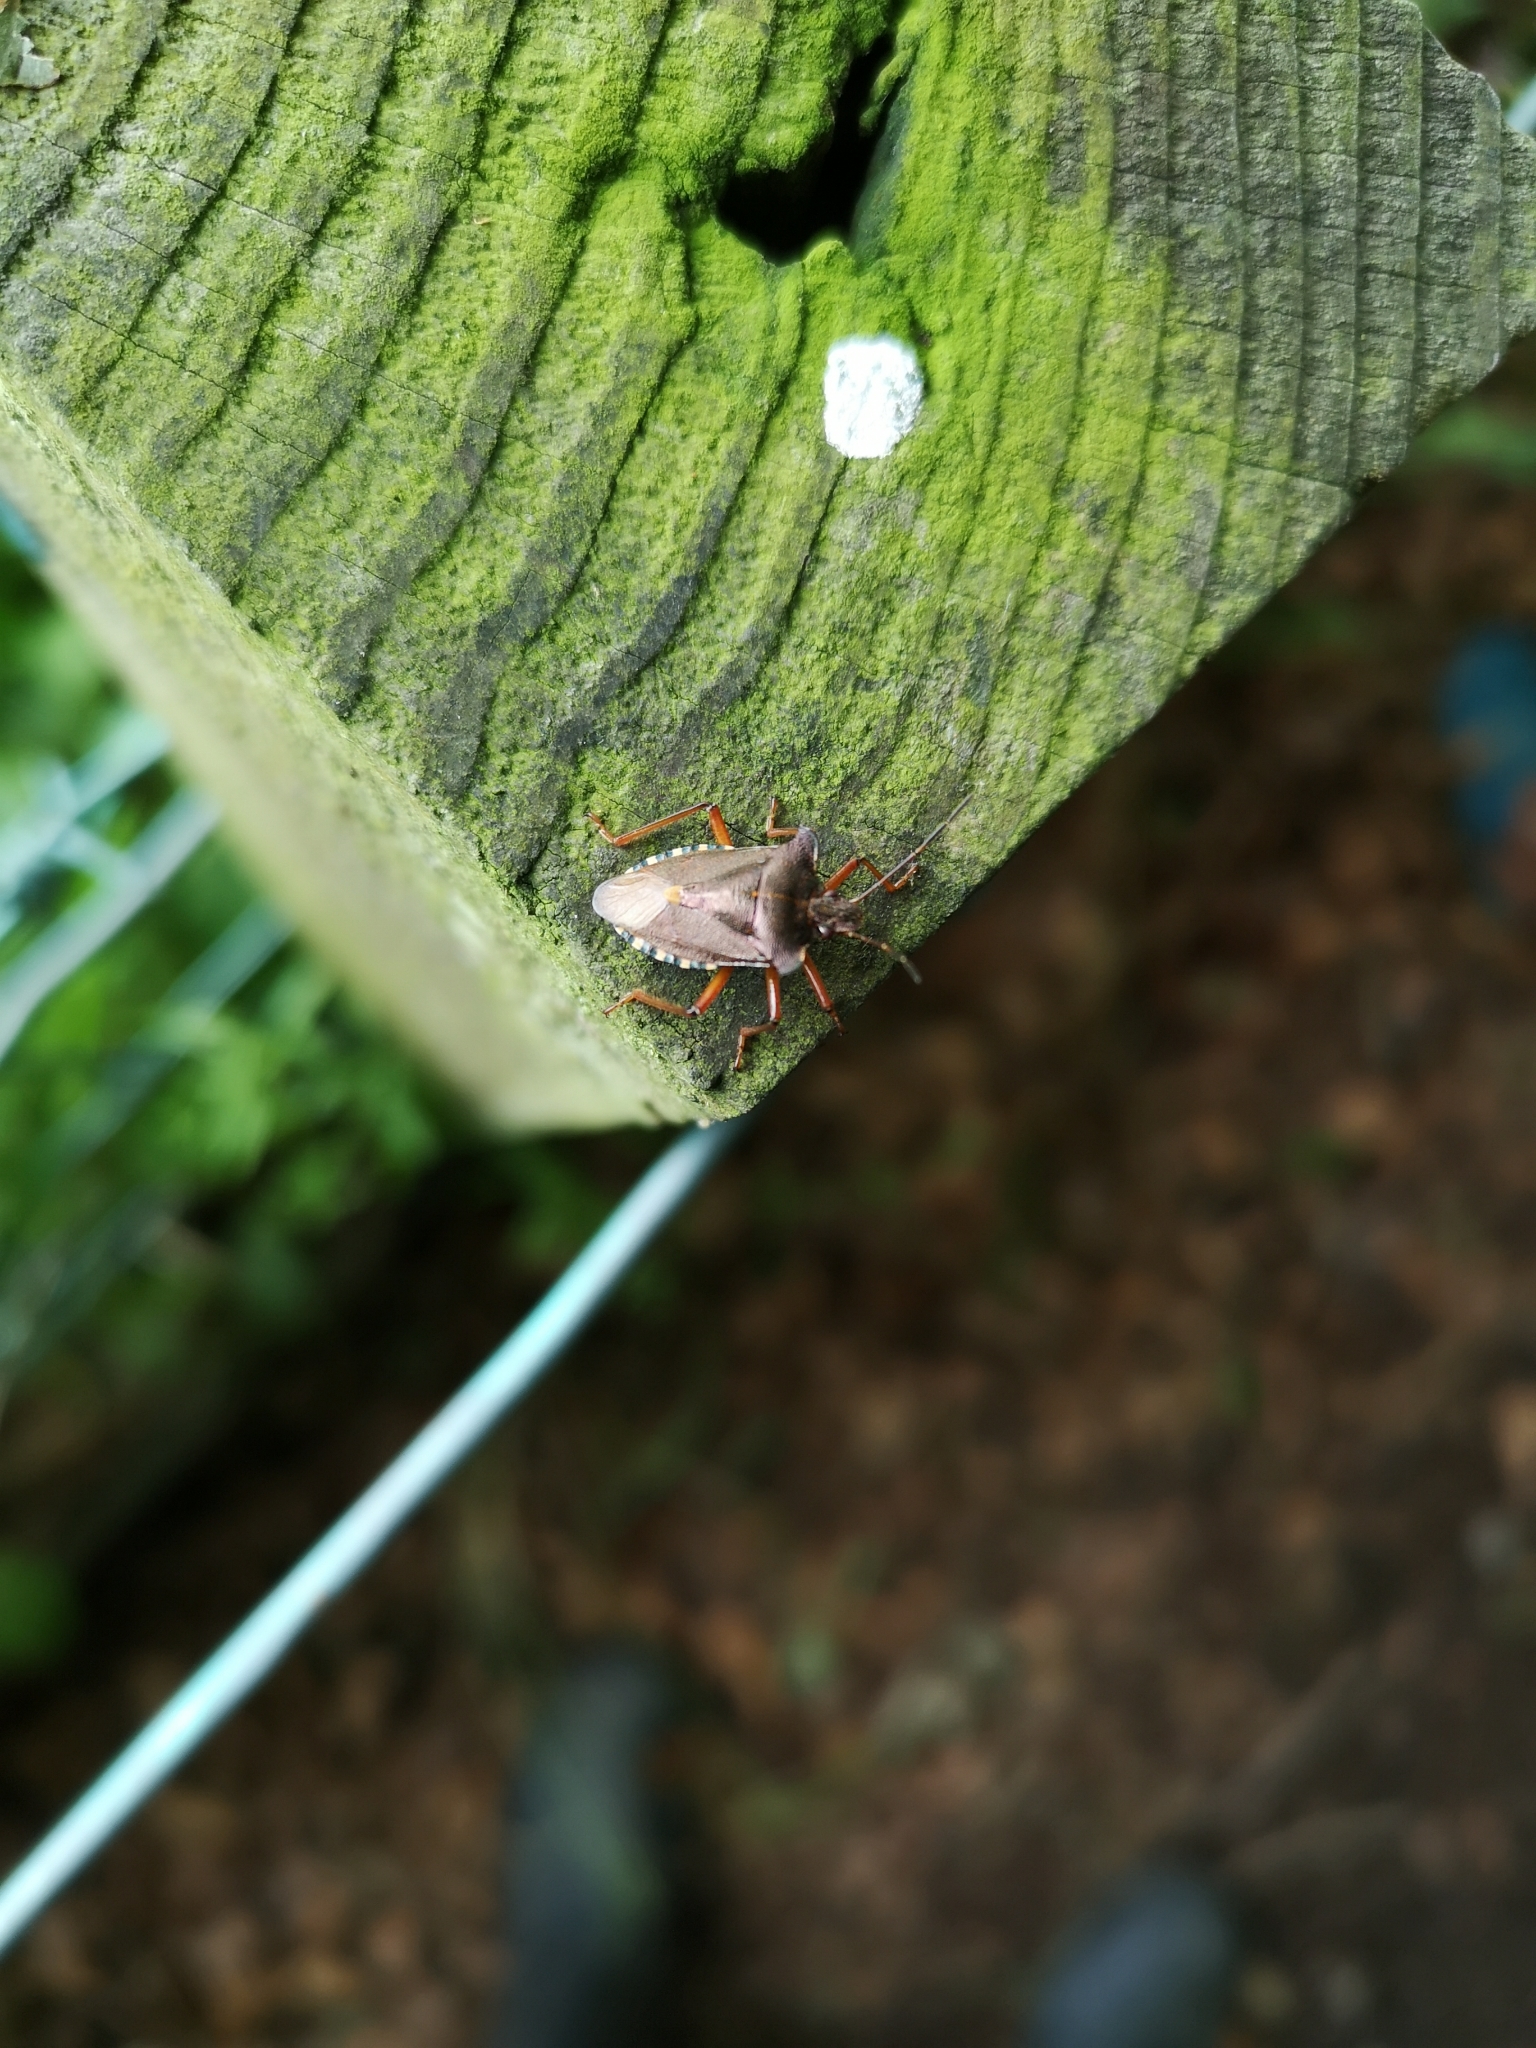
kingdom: Animalia
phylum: Arthropoda
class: Insecta
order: Hemiptera
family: Pentatomidae
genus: Pentatoma
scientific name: Pentatoma rufipes
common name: Forest bug
